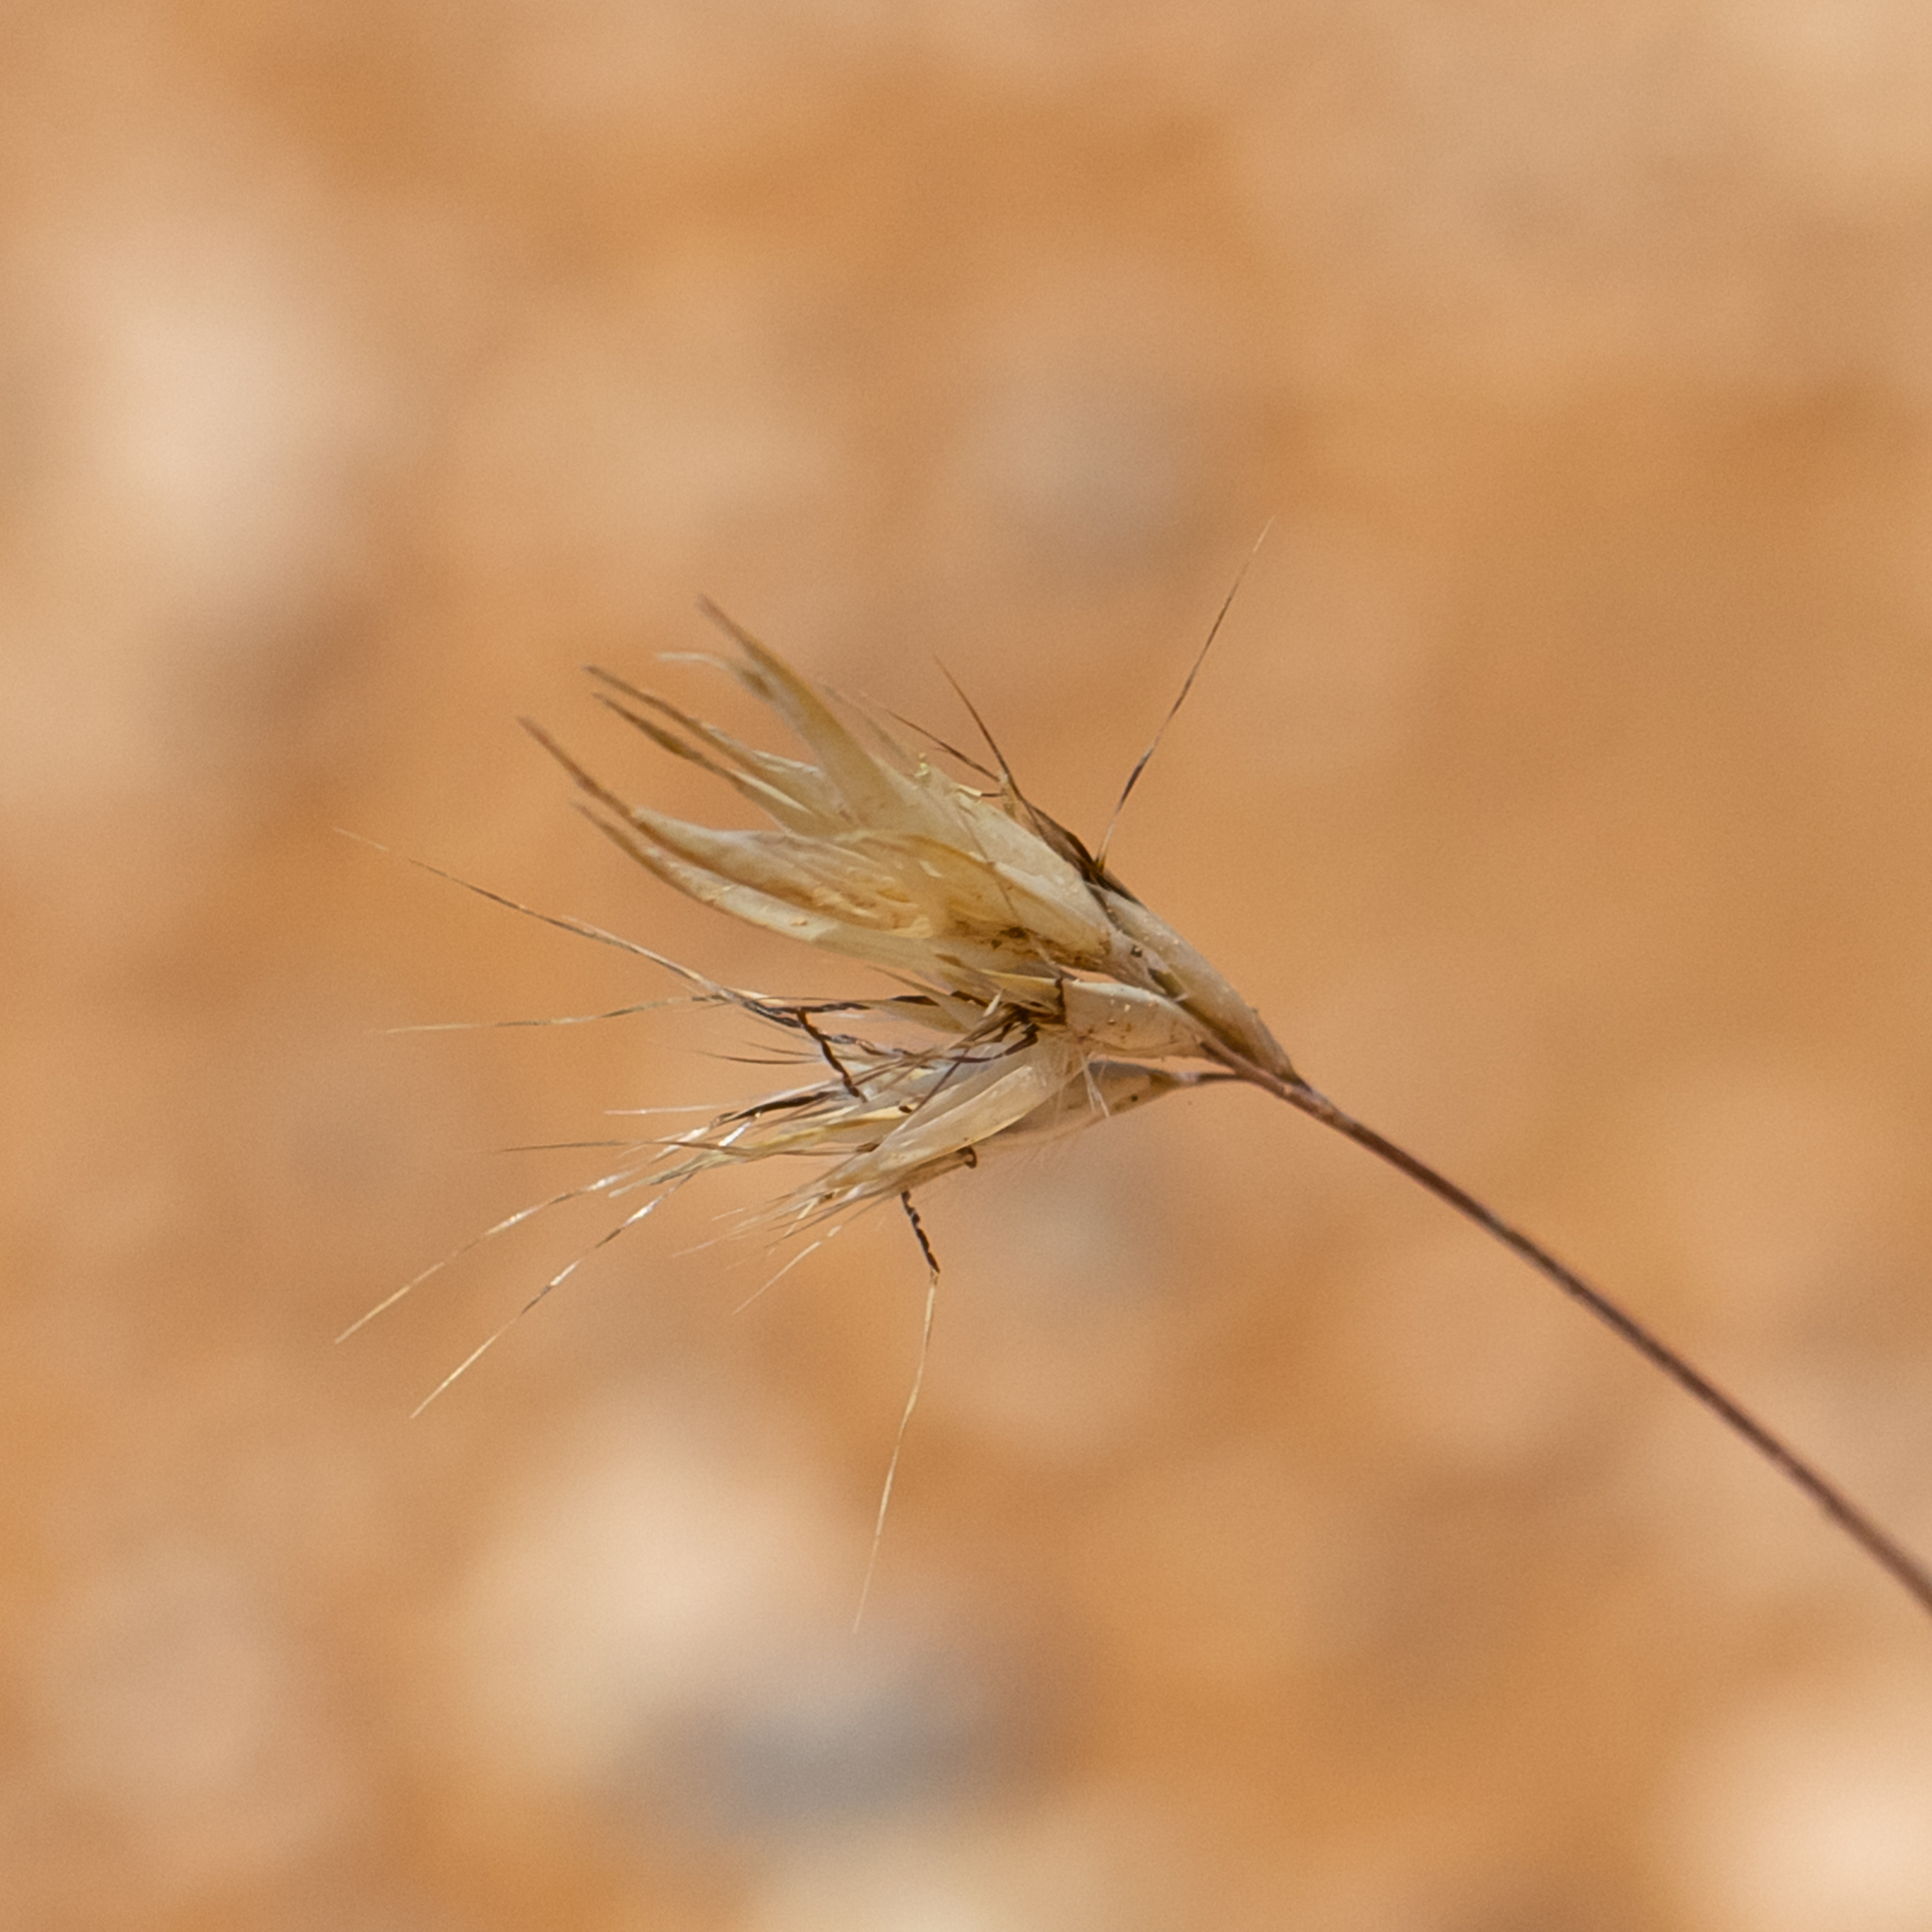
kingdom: Plantae
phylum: Tracheophyta
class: Liliopsida
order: Poales
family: Poaceae
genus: Rytidosperma
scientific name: Rytidosperma robertsoniae
